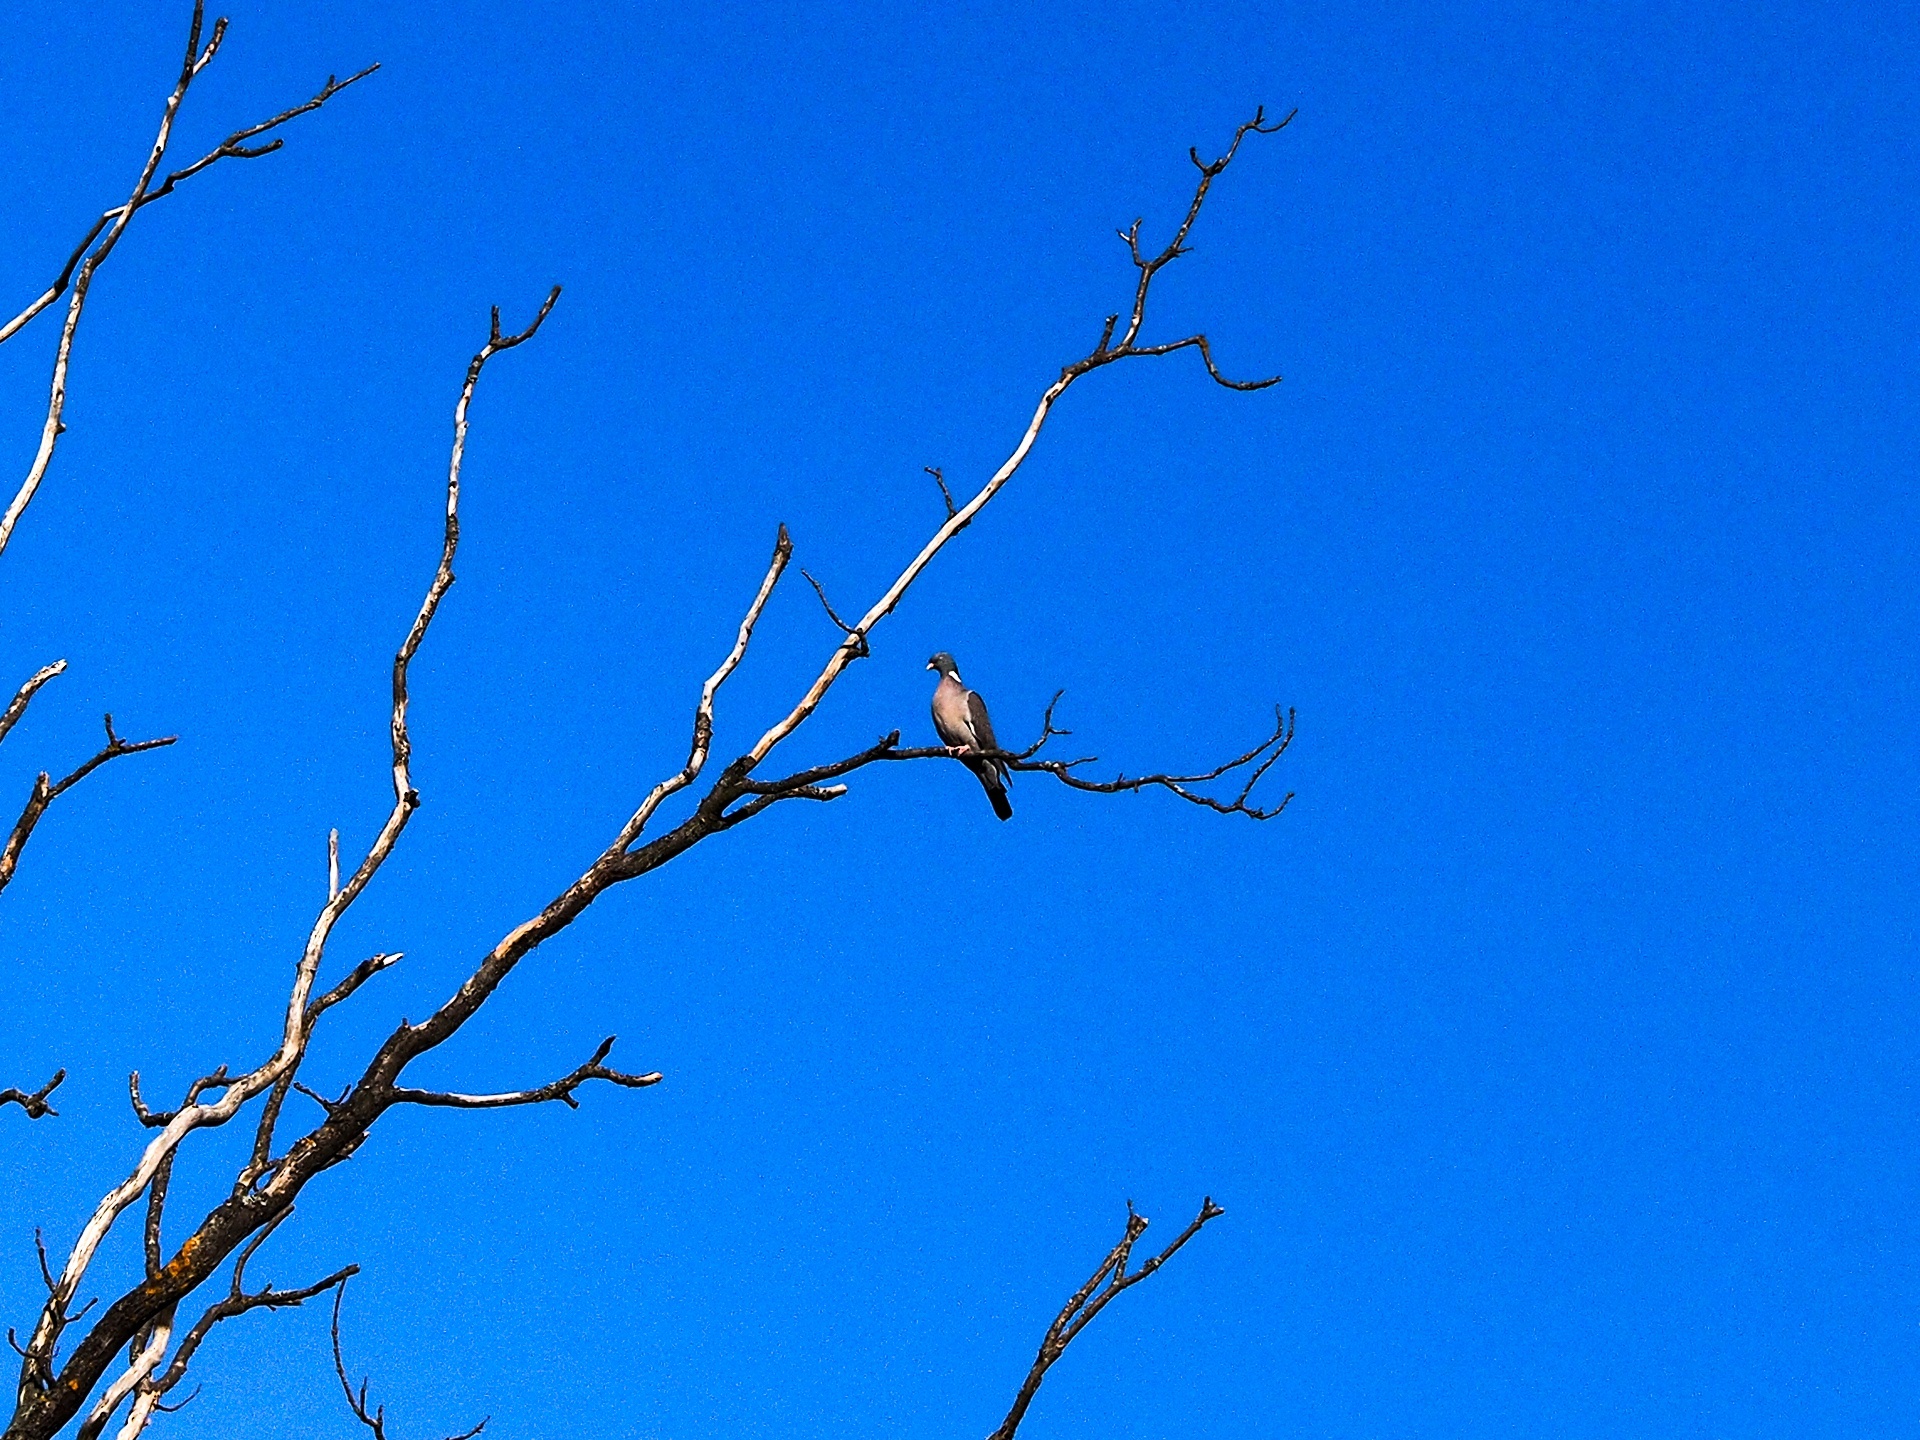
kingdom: Animalia
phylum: Chordata
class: Aves
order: Columbiformes
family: Columbidae
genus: Columba
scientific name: Columba palumbus
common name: Common wood pigeon
